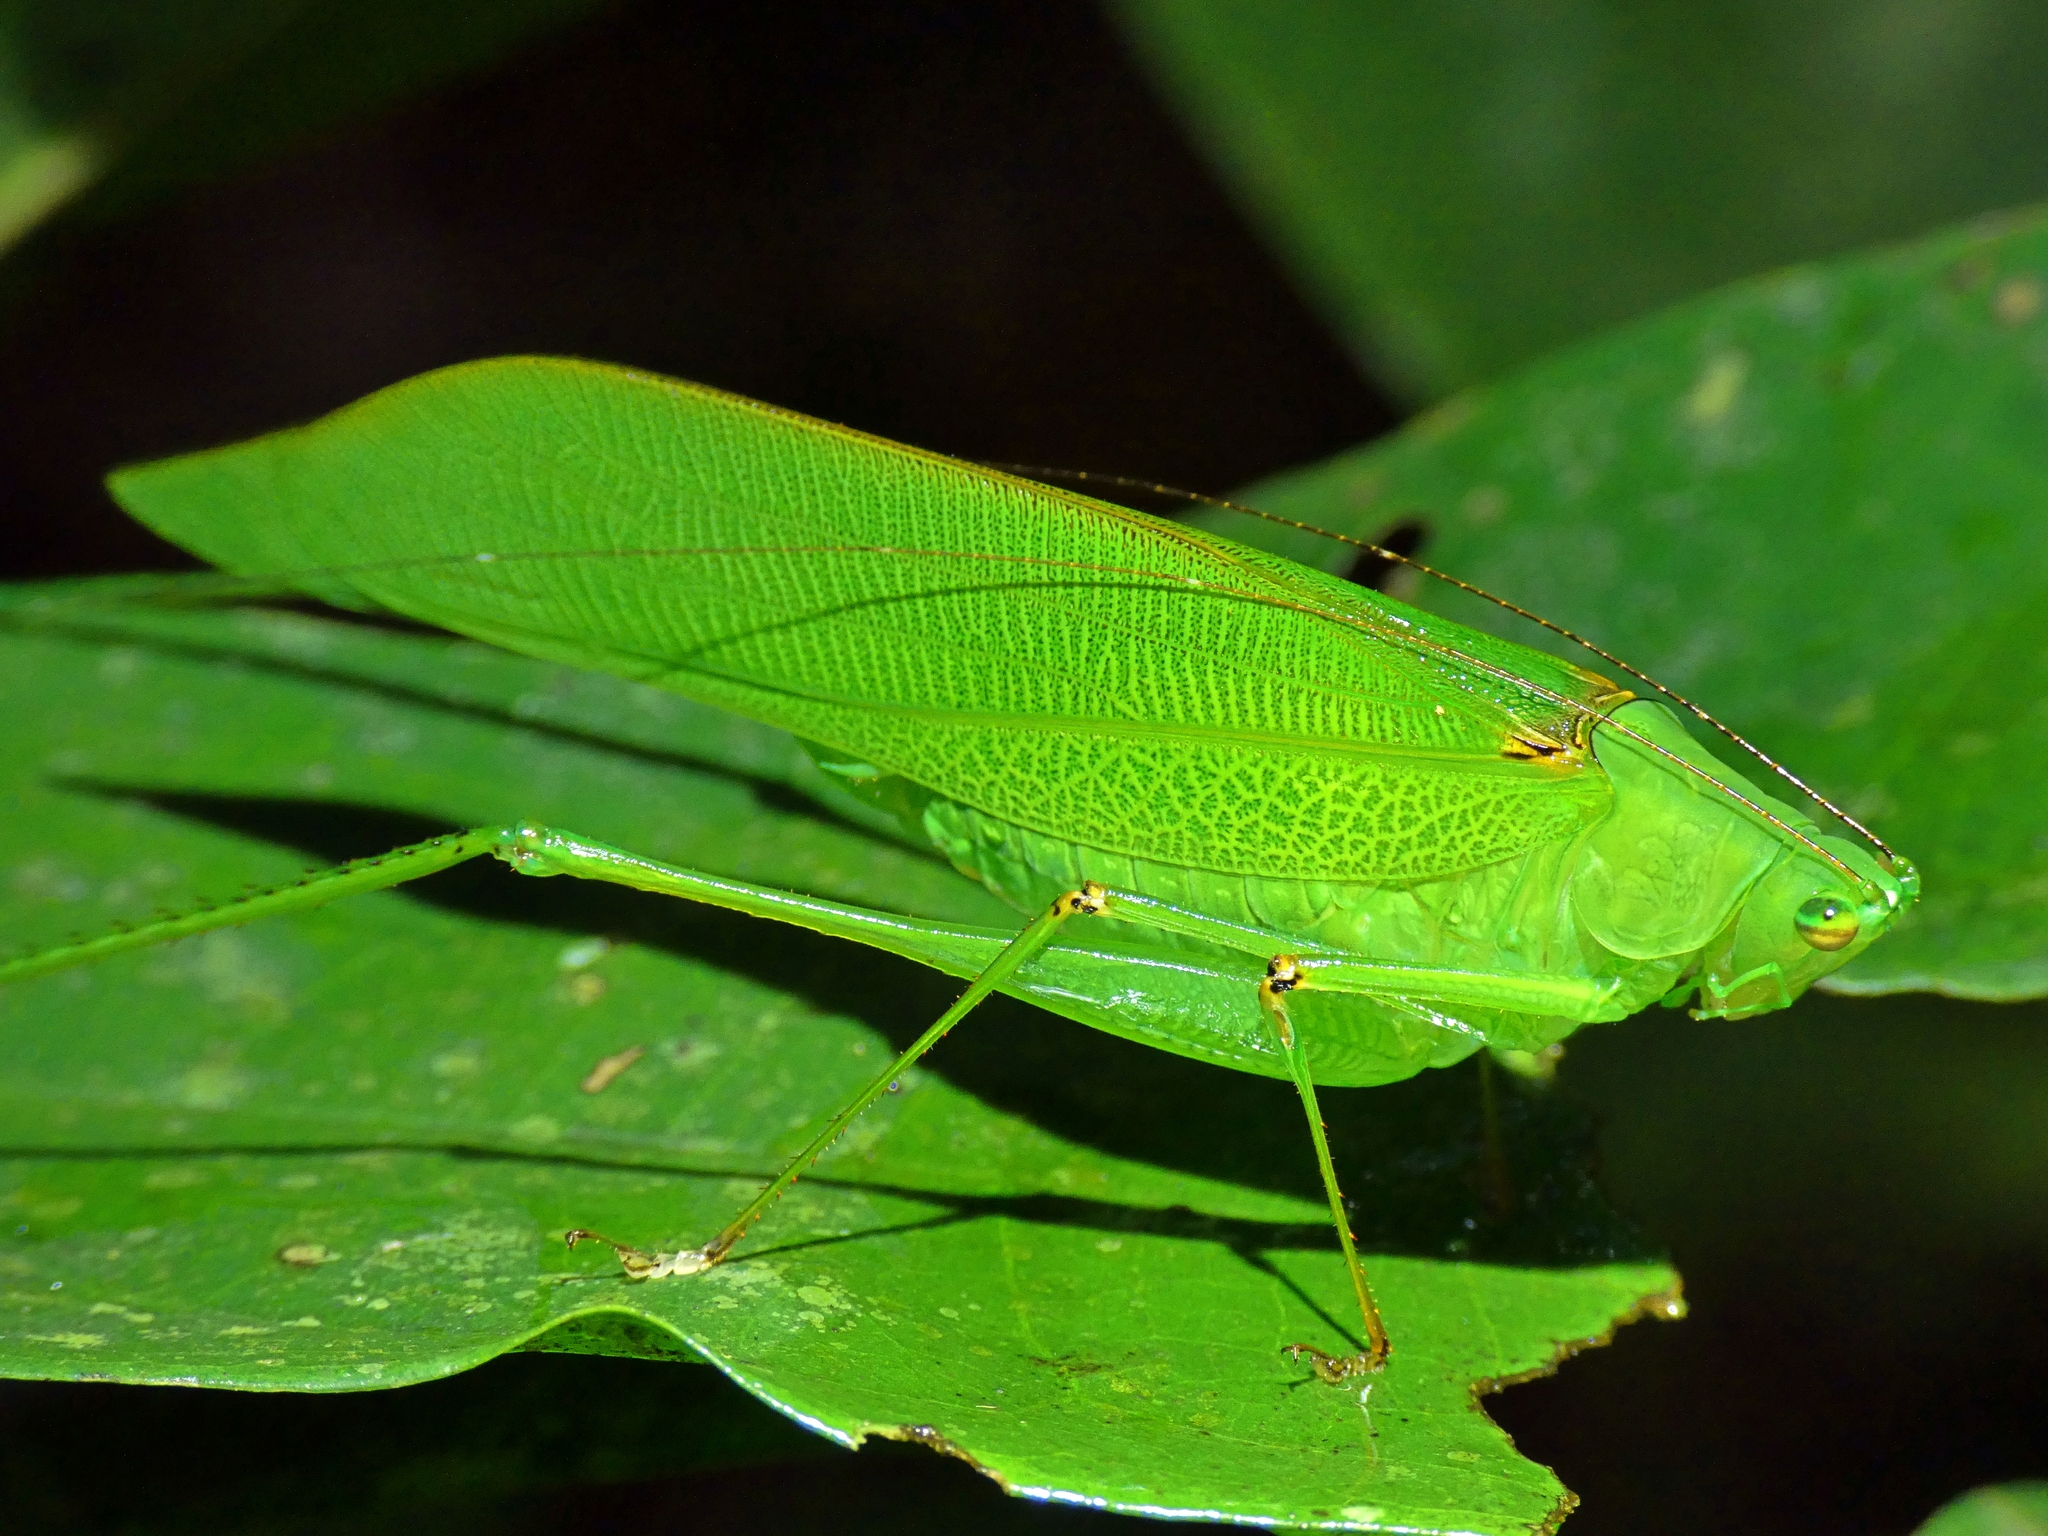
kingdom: Animalia
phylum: Arthropoda
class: Insecta
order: Orthoptera
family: Tettigoniidae
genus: Leucopodoptera
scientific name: Leucopodoptera eumundii
